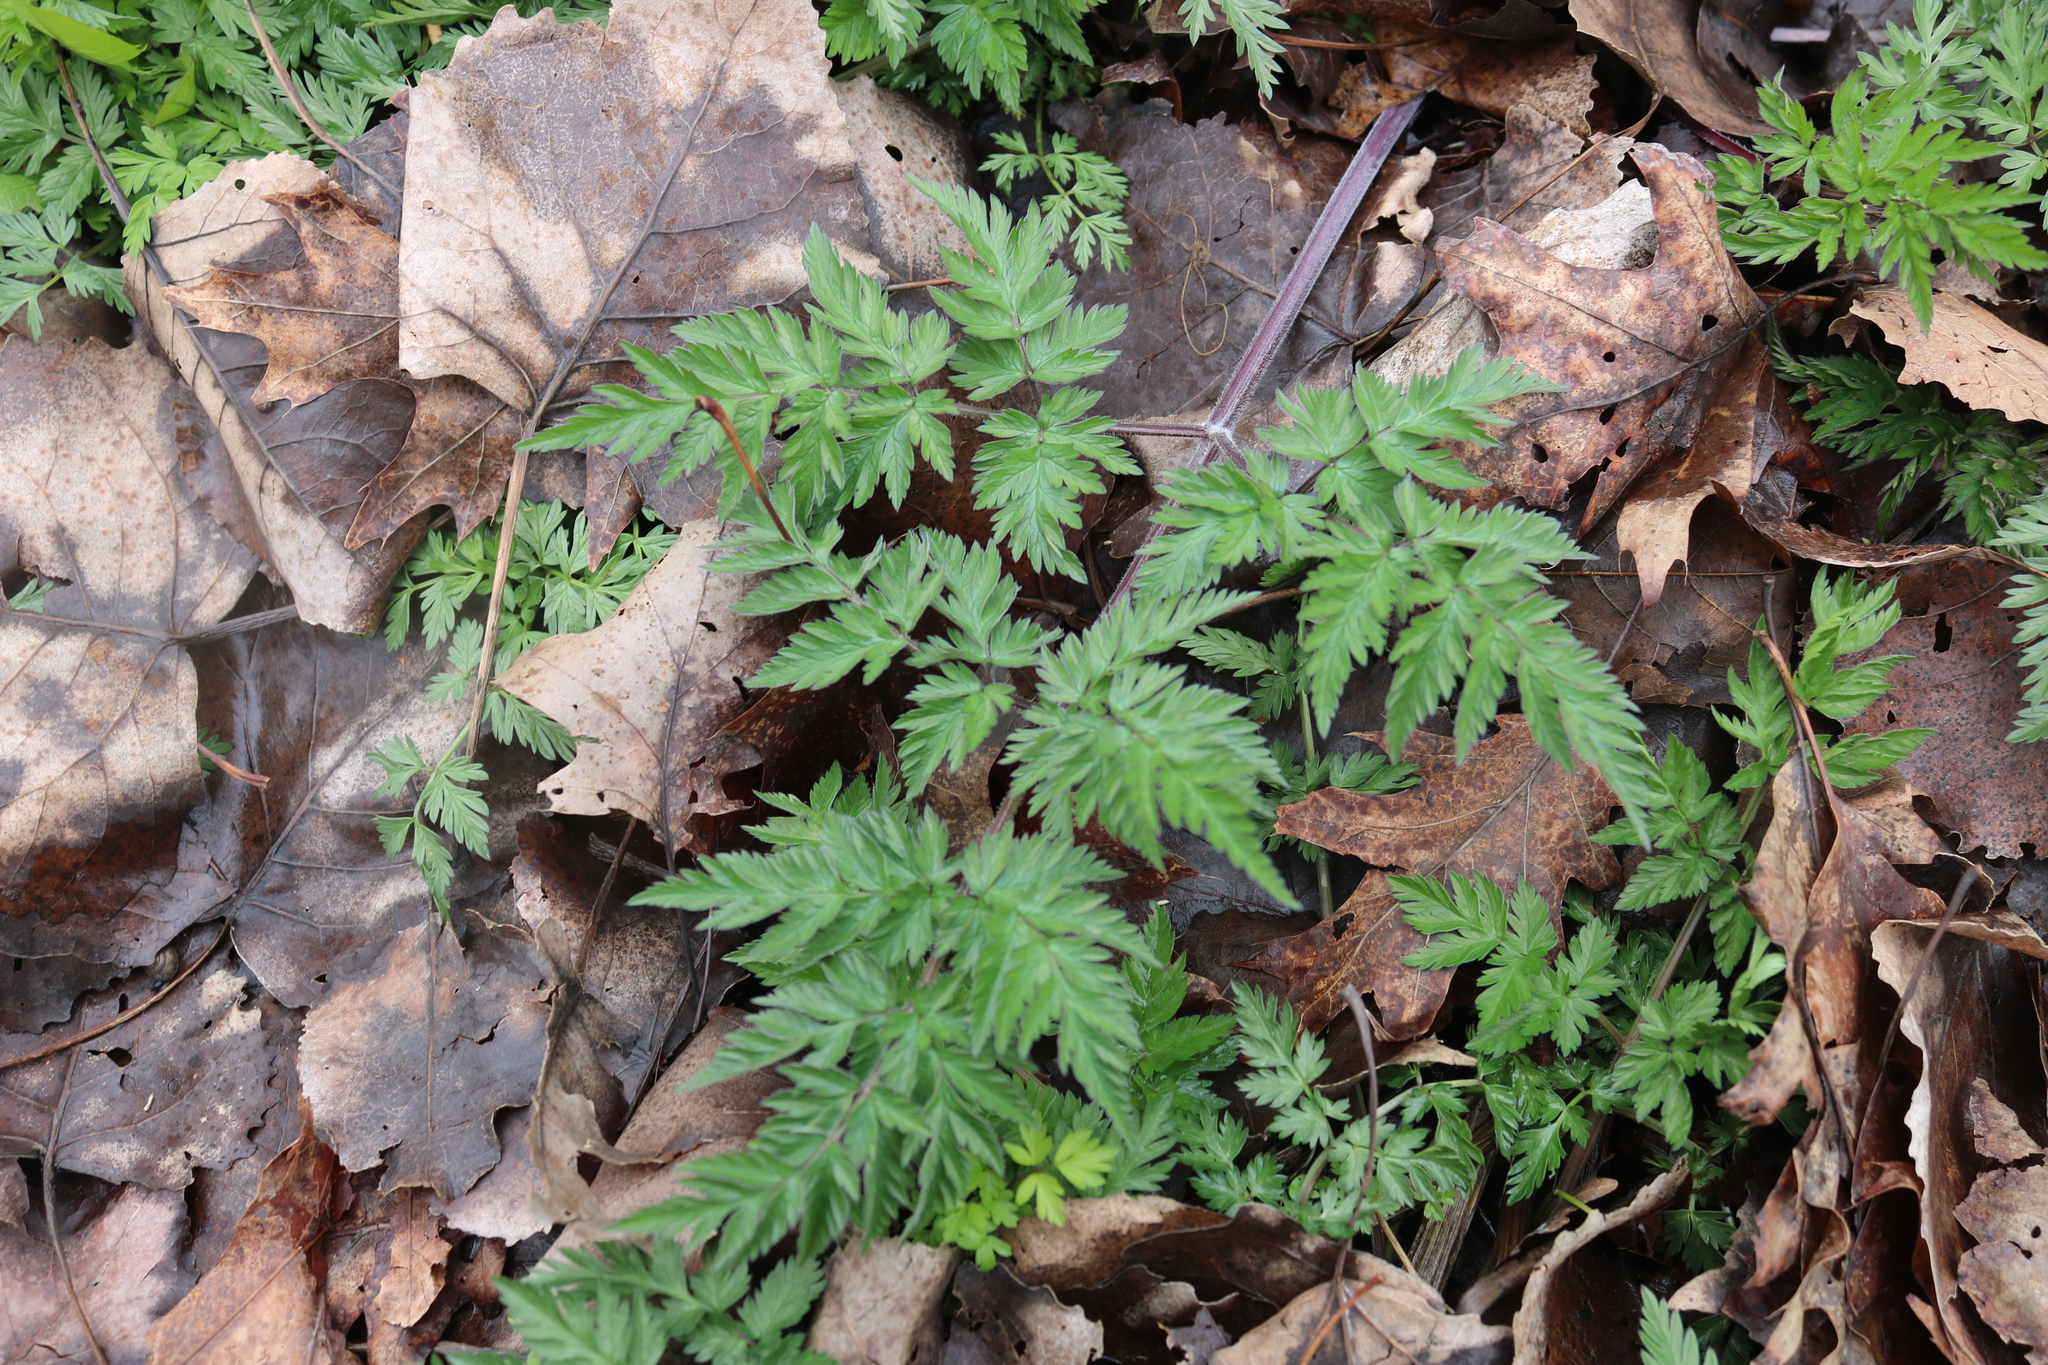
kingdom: Plantae
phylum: Tracheophyta
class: Magnoliopsida
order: Apiales
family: Apiaceae
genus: Anthriscus
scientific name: Anthriscus sylvestris
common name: Cow parsley
